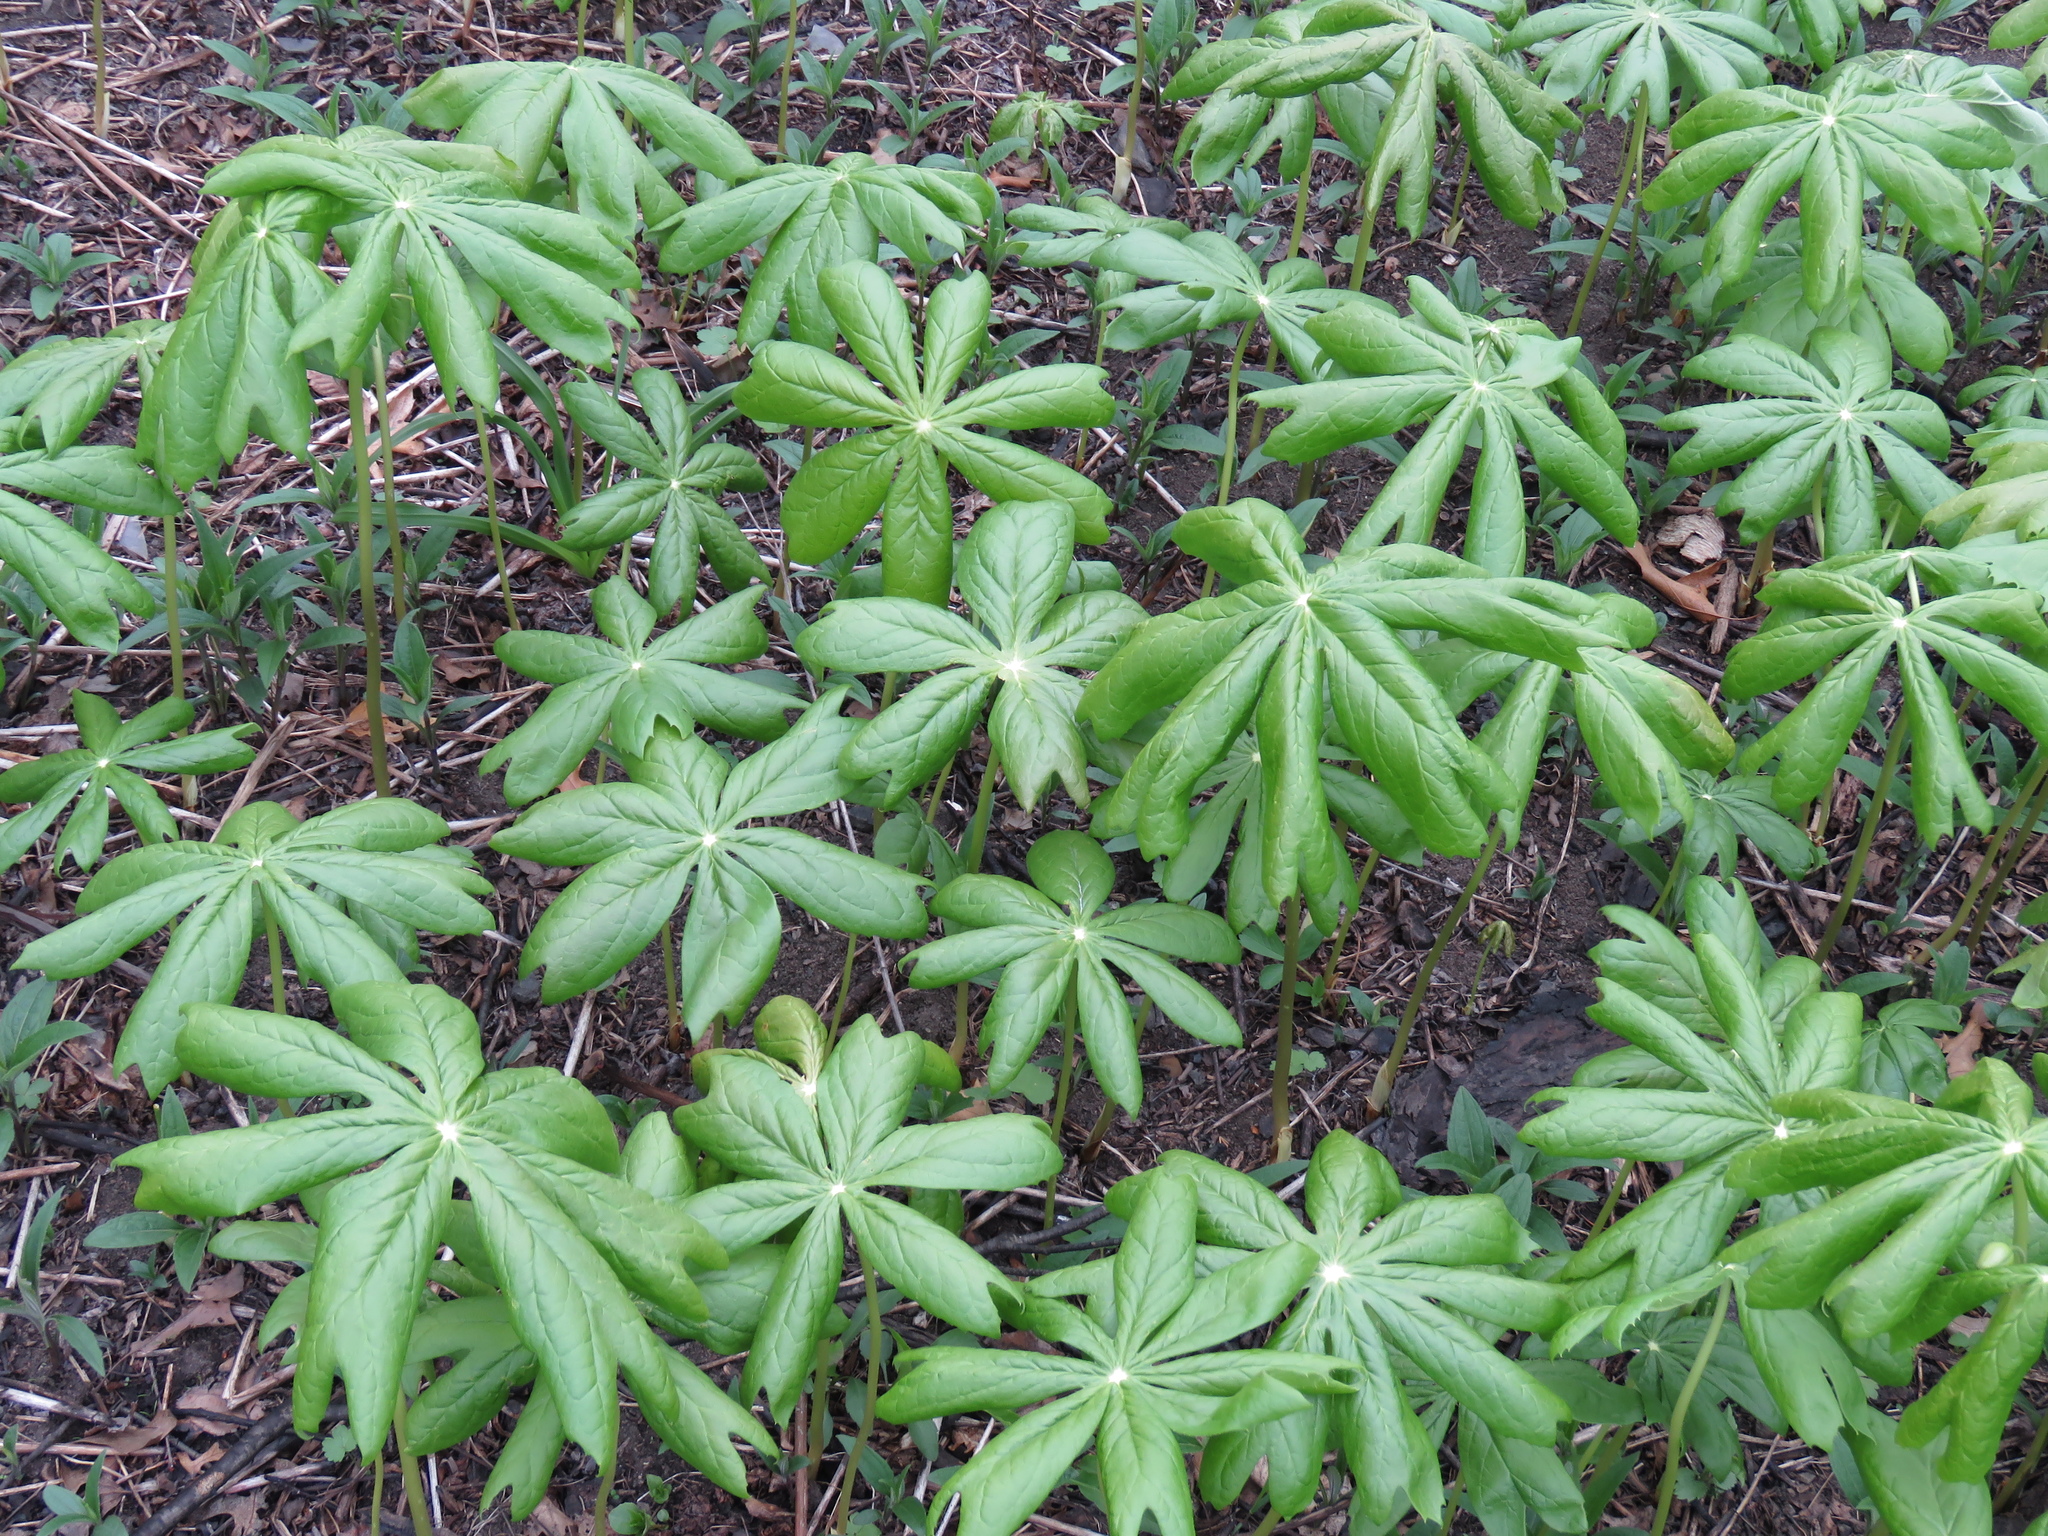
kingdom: Plantae
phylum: Tracheophyta
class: Magnoliopsida
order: Ranunculales
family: Berberidaceae
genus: Podophyllum
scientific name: Podophyllum peltatum
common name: Wild mandrake
